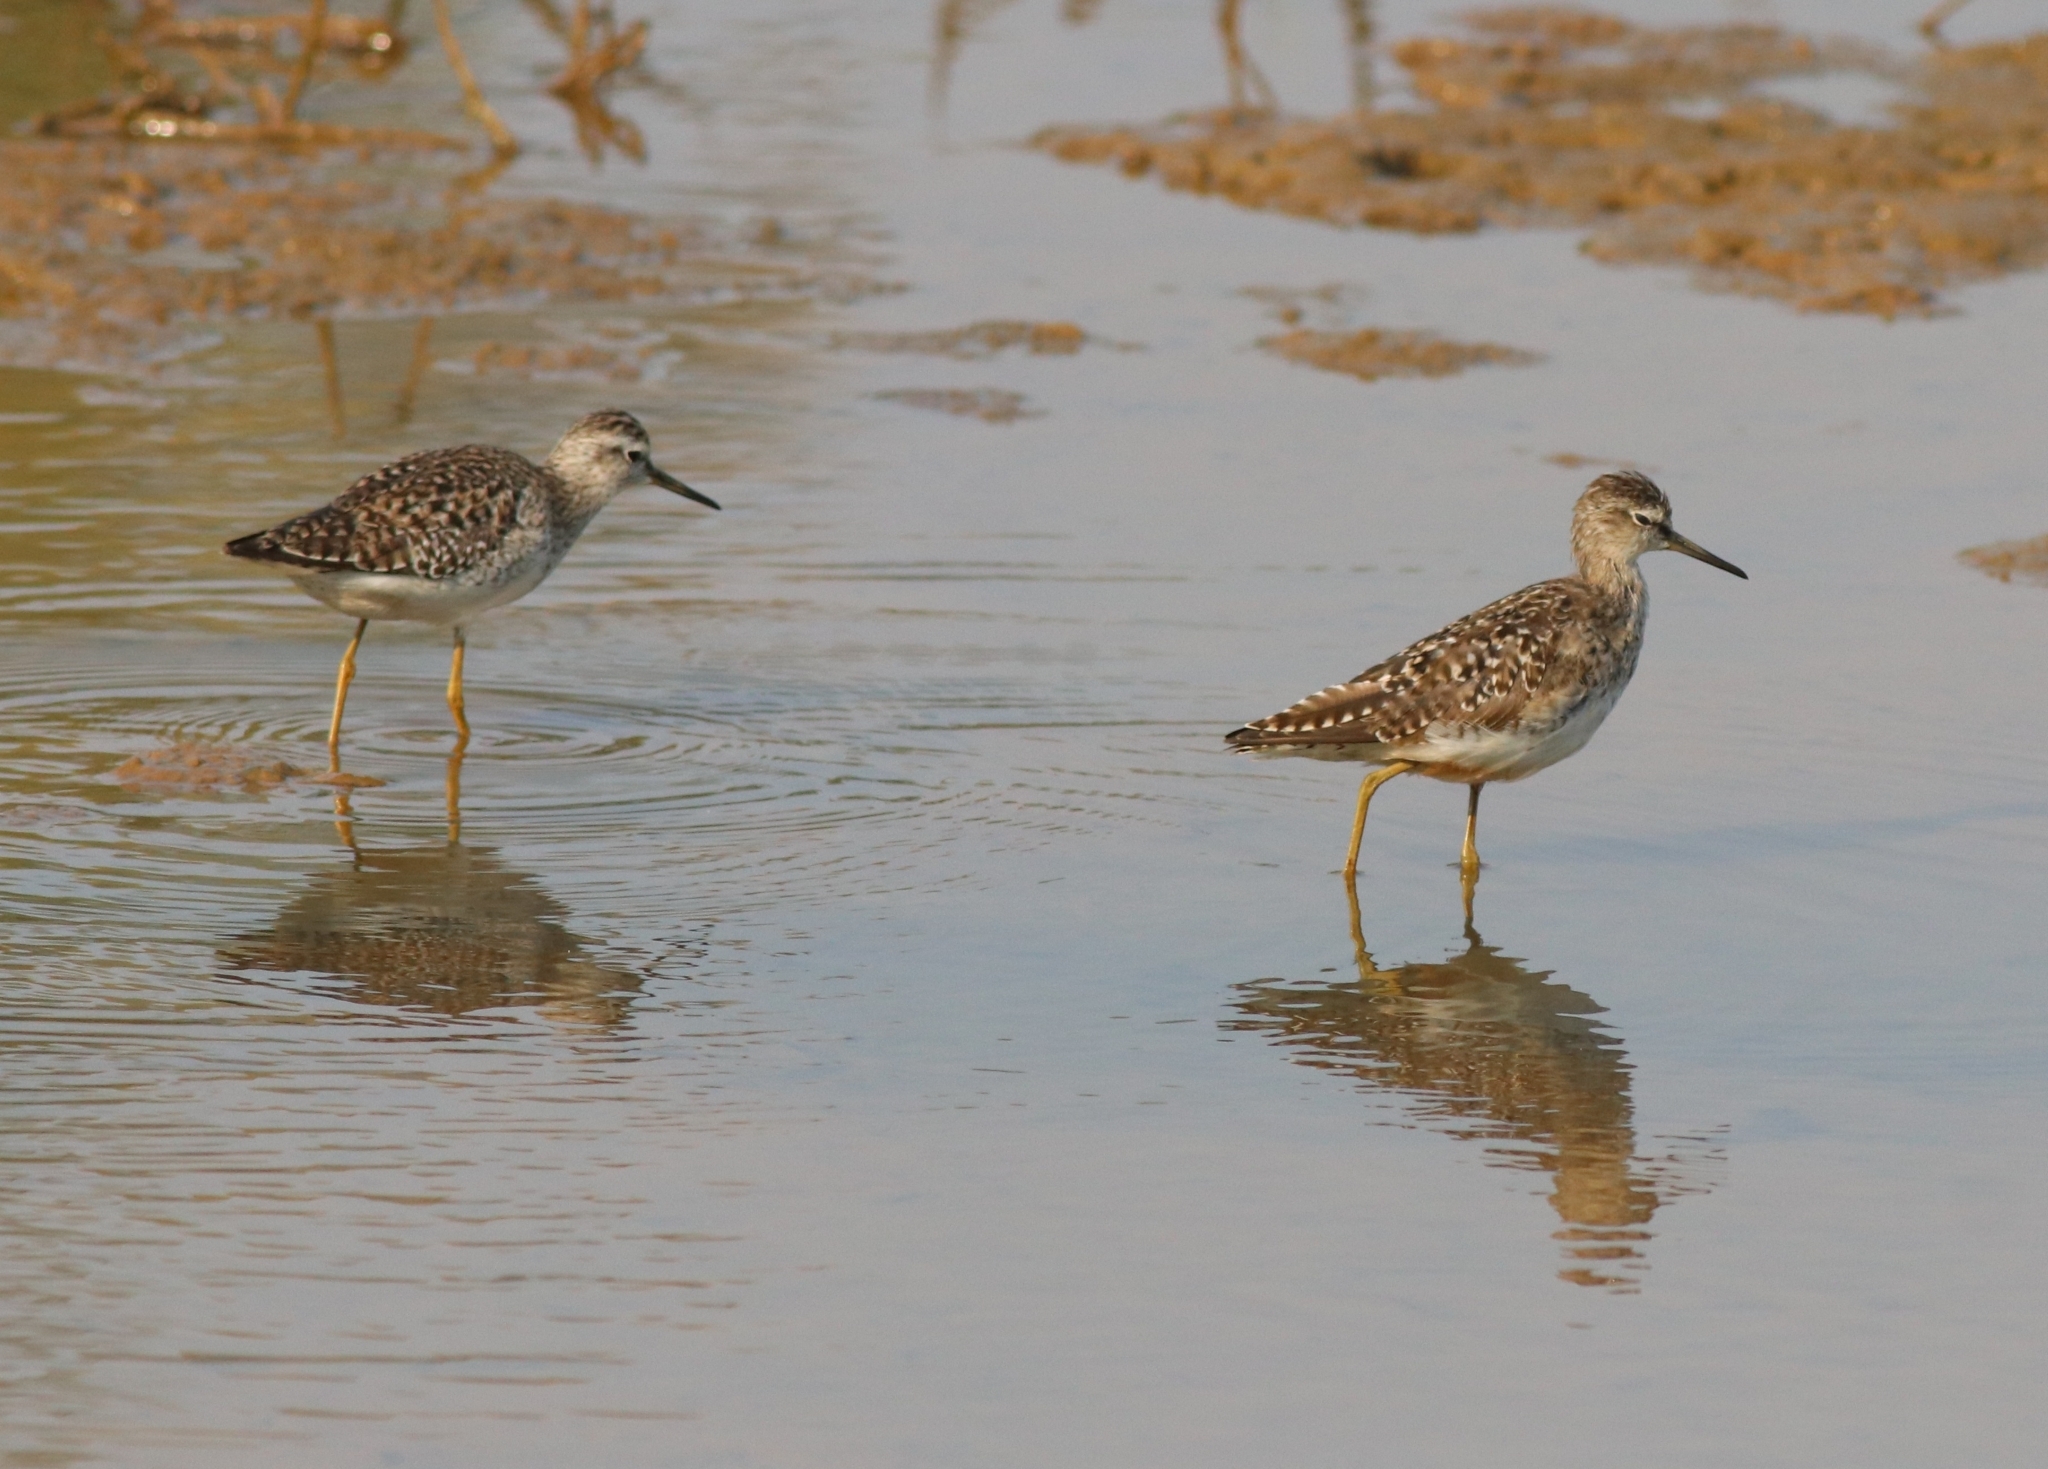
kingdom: Animalia
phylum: Chordata
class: Aves
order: Charadriiformes
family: Scolopacidae
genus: Tringa
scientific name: Tringa glareola
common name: Wood sandpiper
